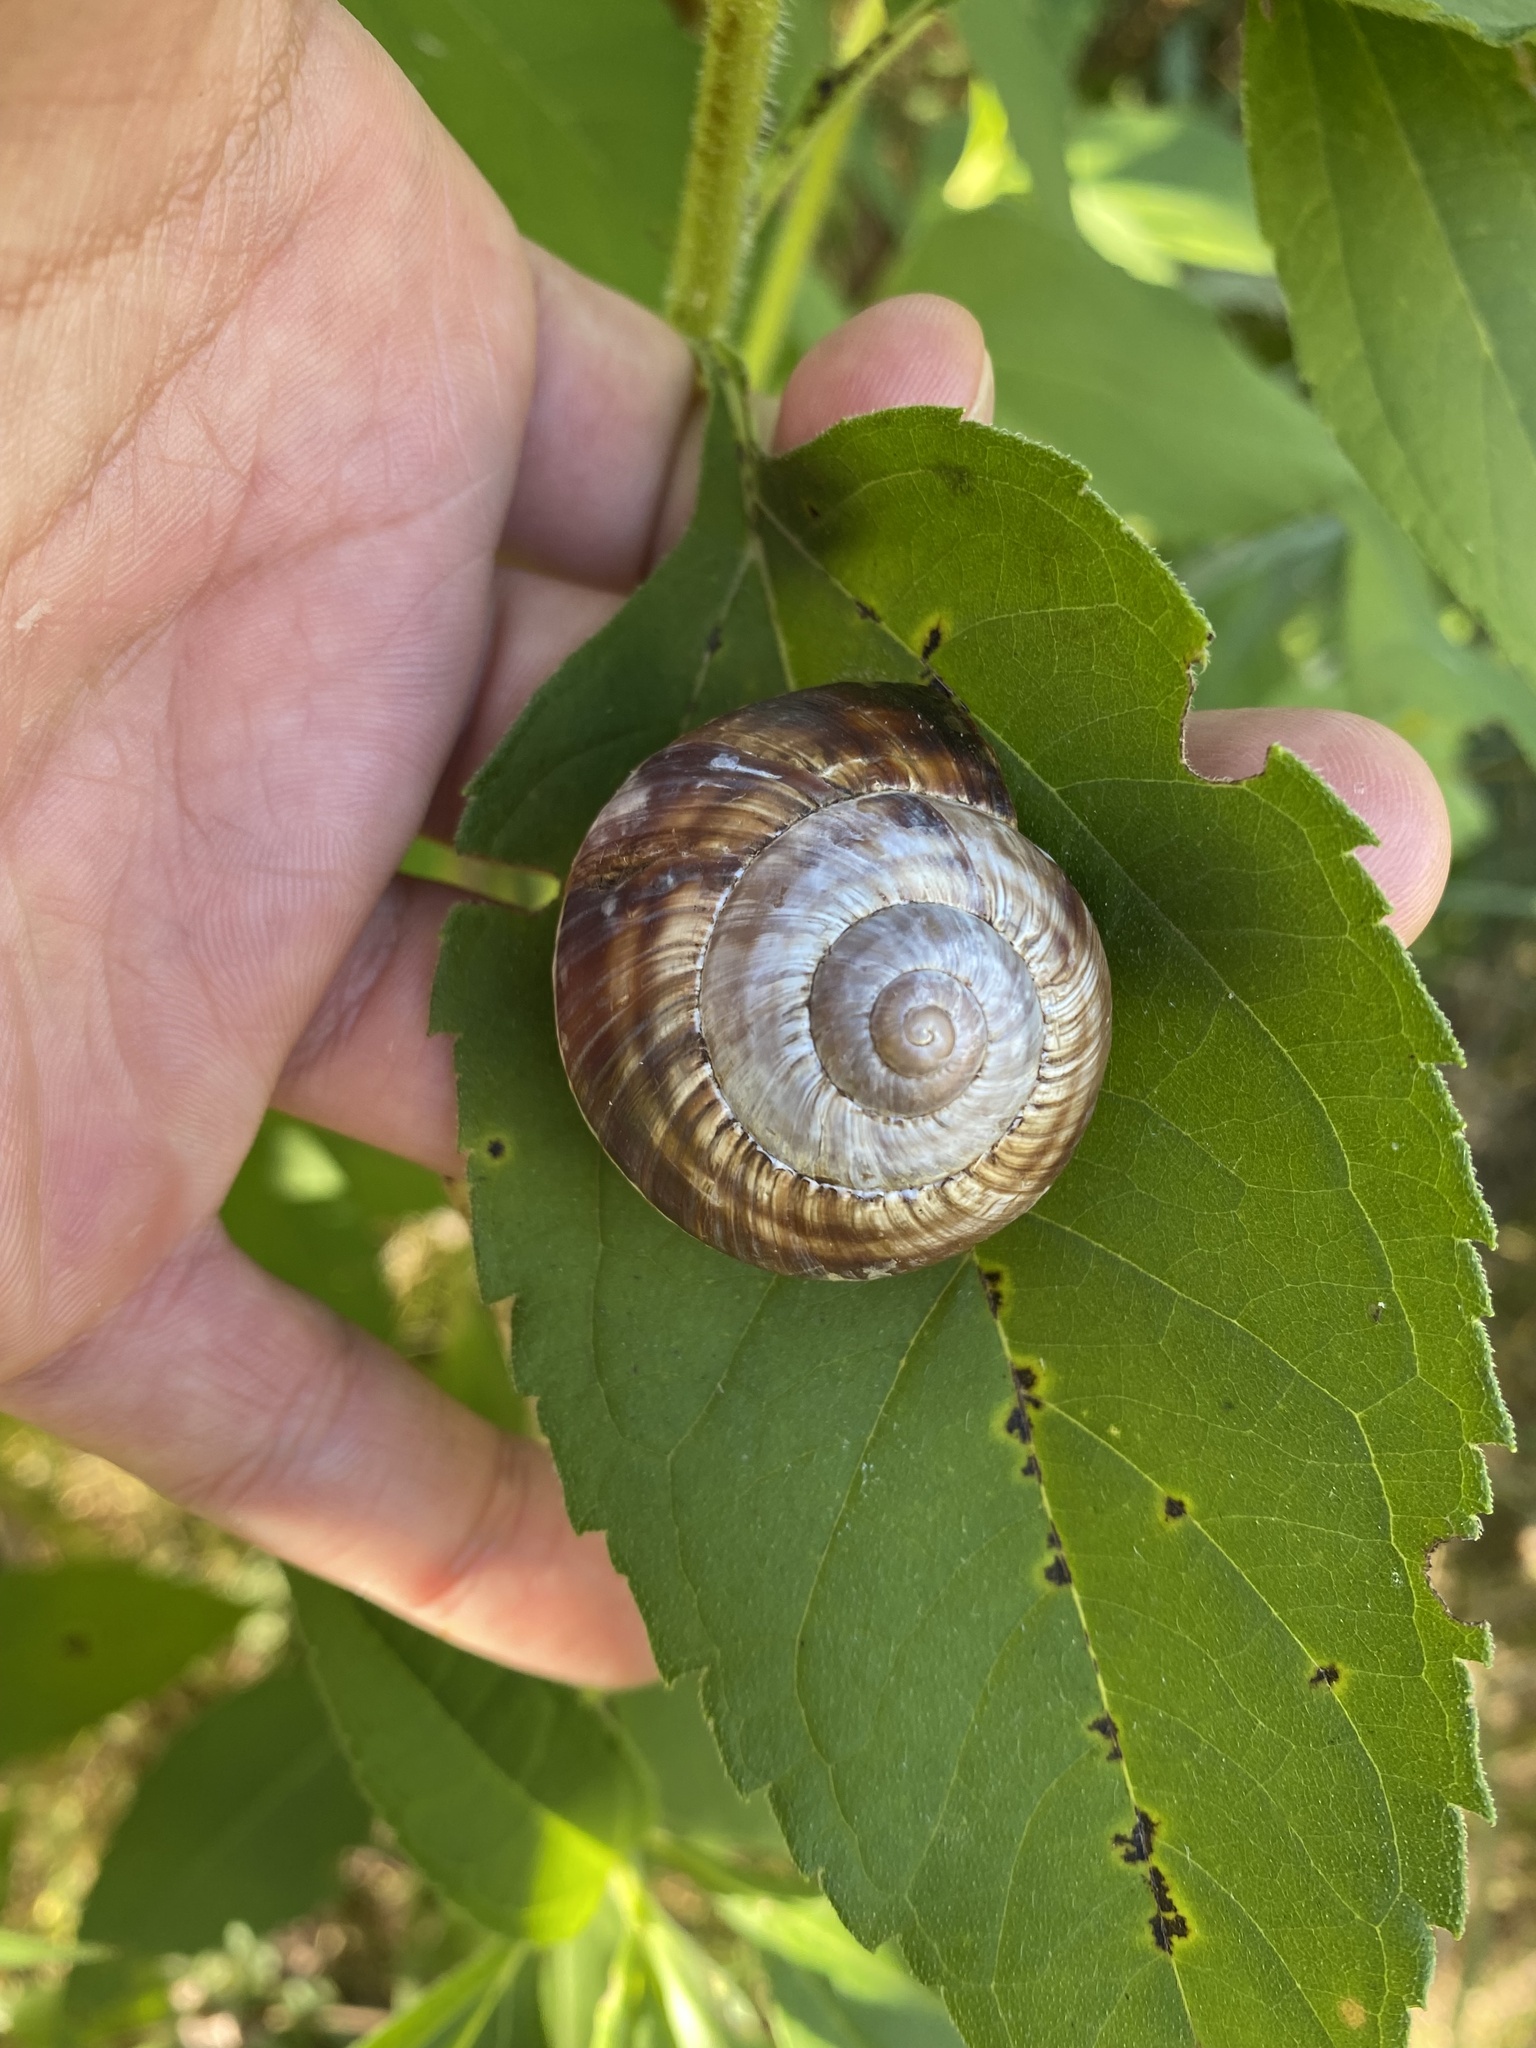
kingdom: Animalia
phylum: Mollusca
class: Gastropoda
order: Stylommatophora
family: Helicidae
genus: Helix
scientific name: Helix lucorum
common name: Turkish snail
